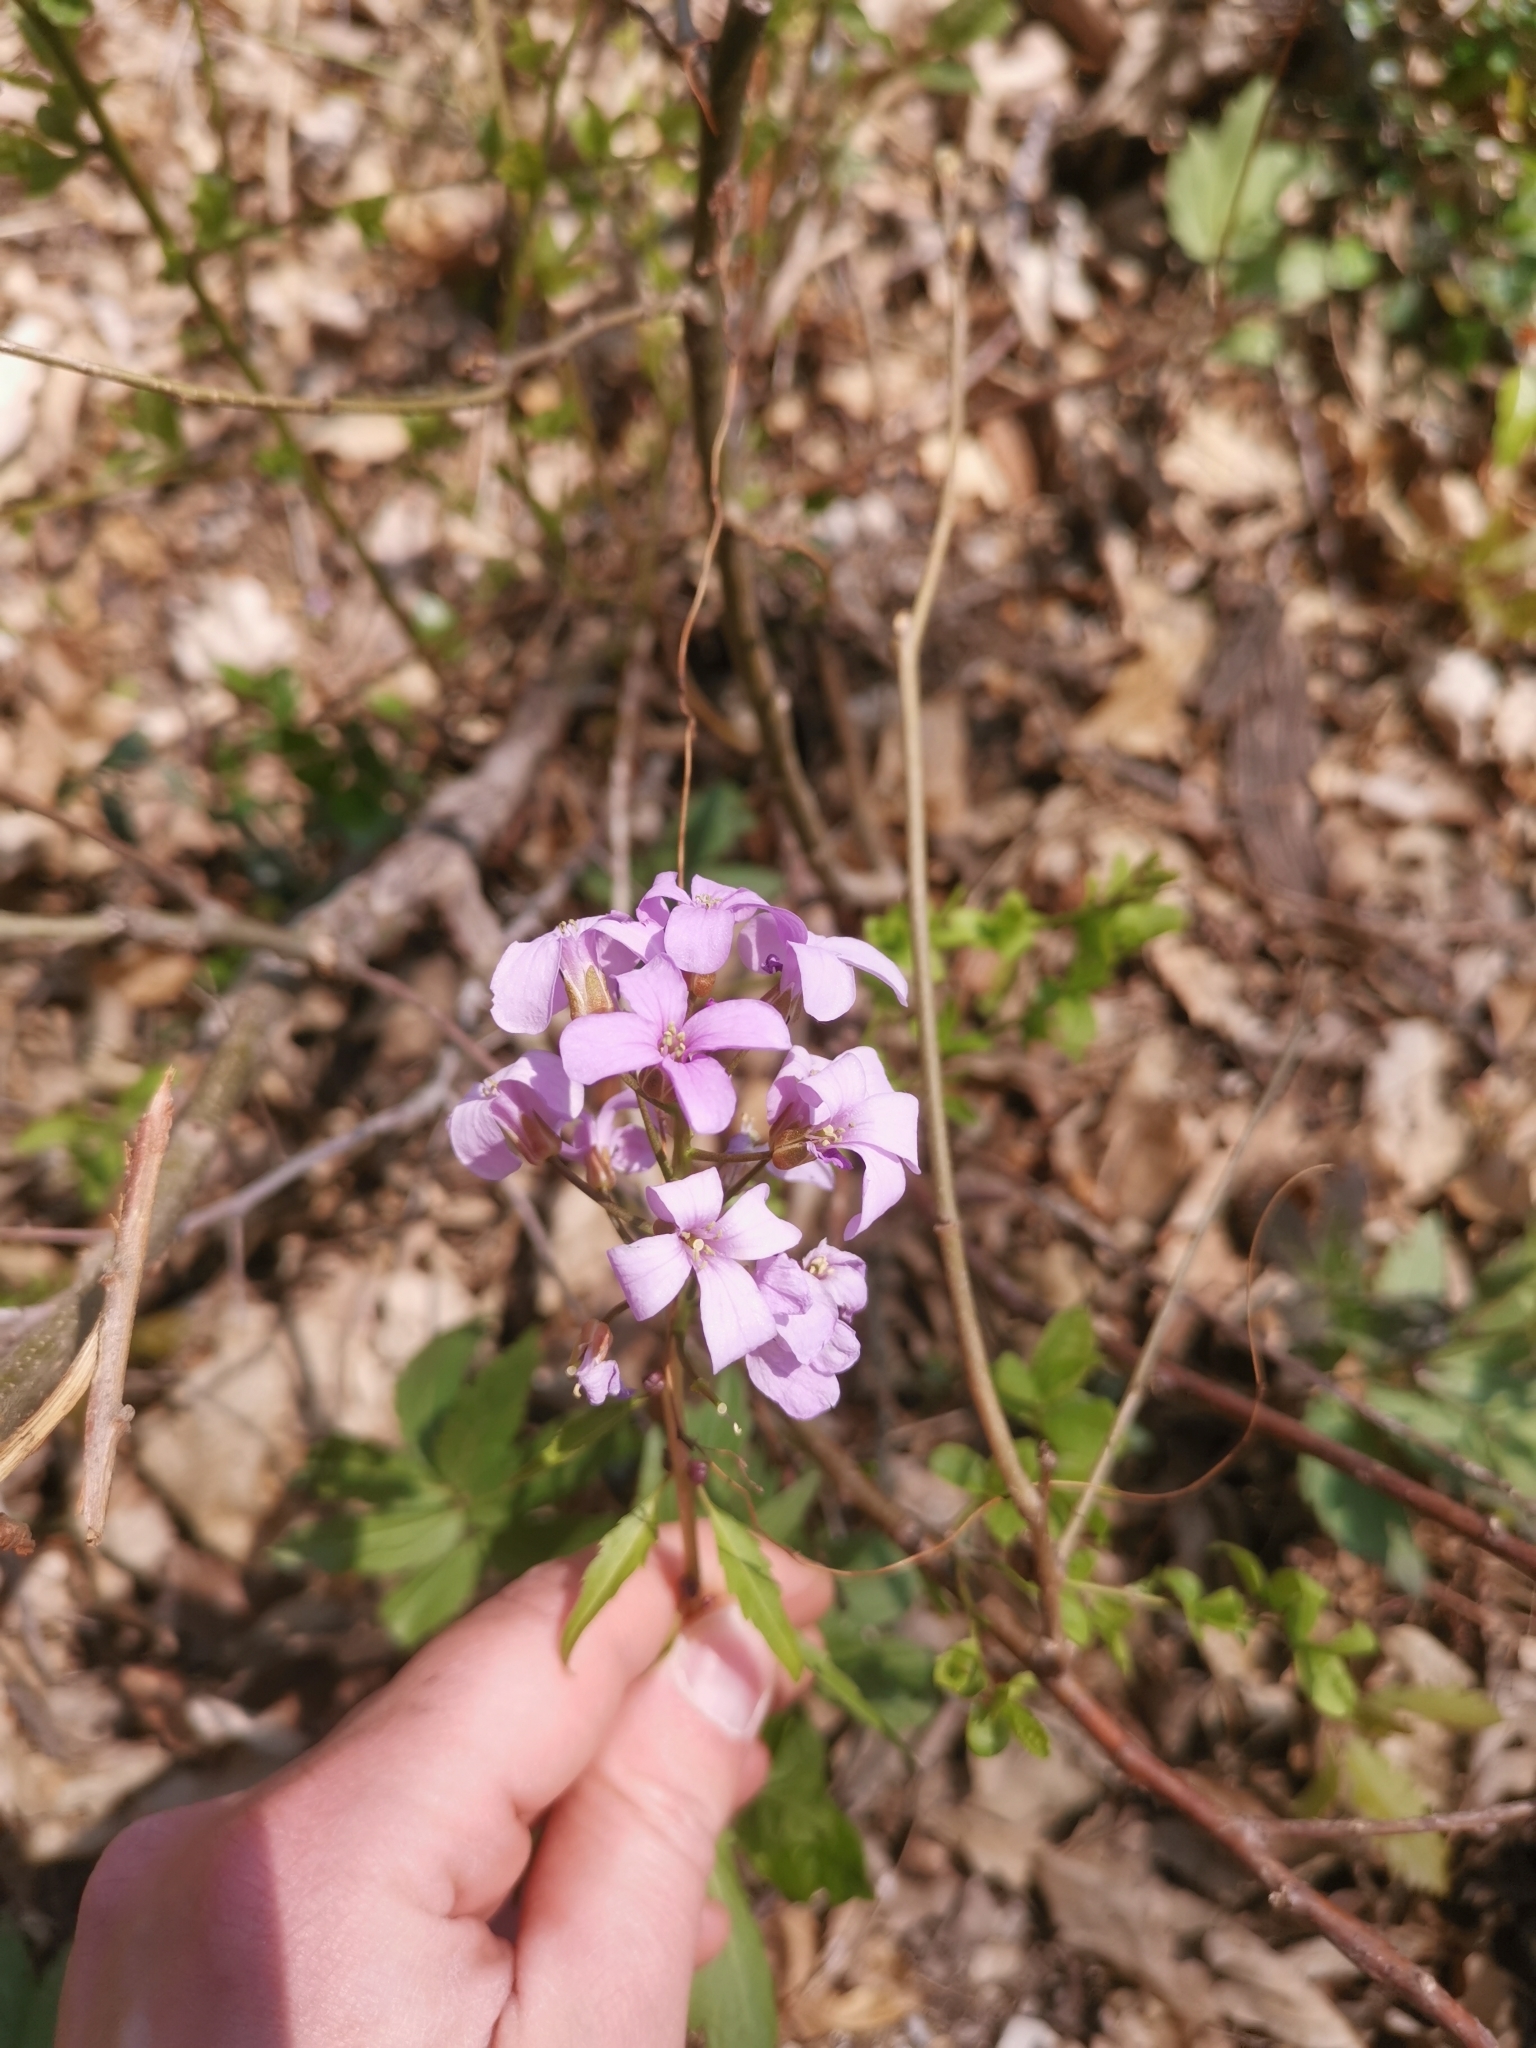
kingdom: Plantae
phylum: Tracheophyta
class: Magnoliopsida
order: Brassicales
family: Brassicaceae
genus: Cardamine
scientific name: Cardamine bulbifera
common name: Coralroot bittercress
